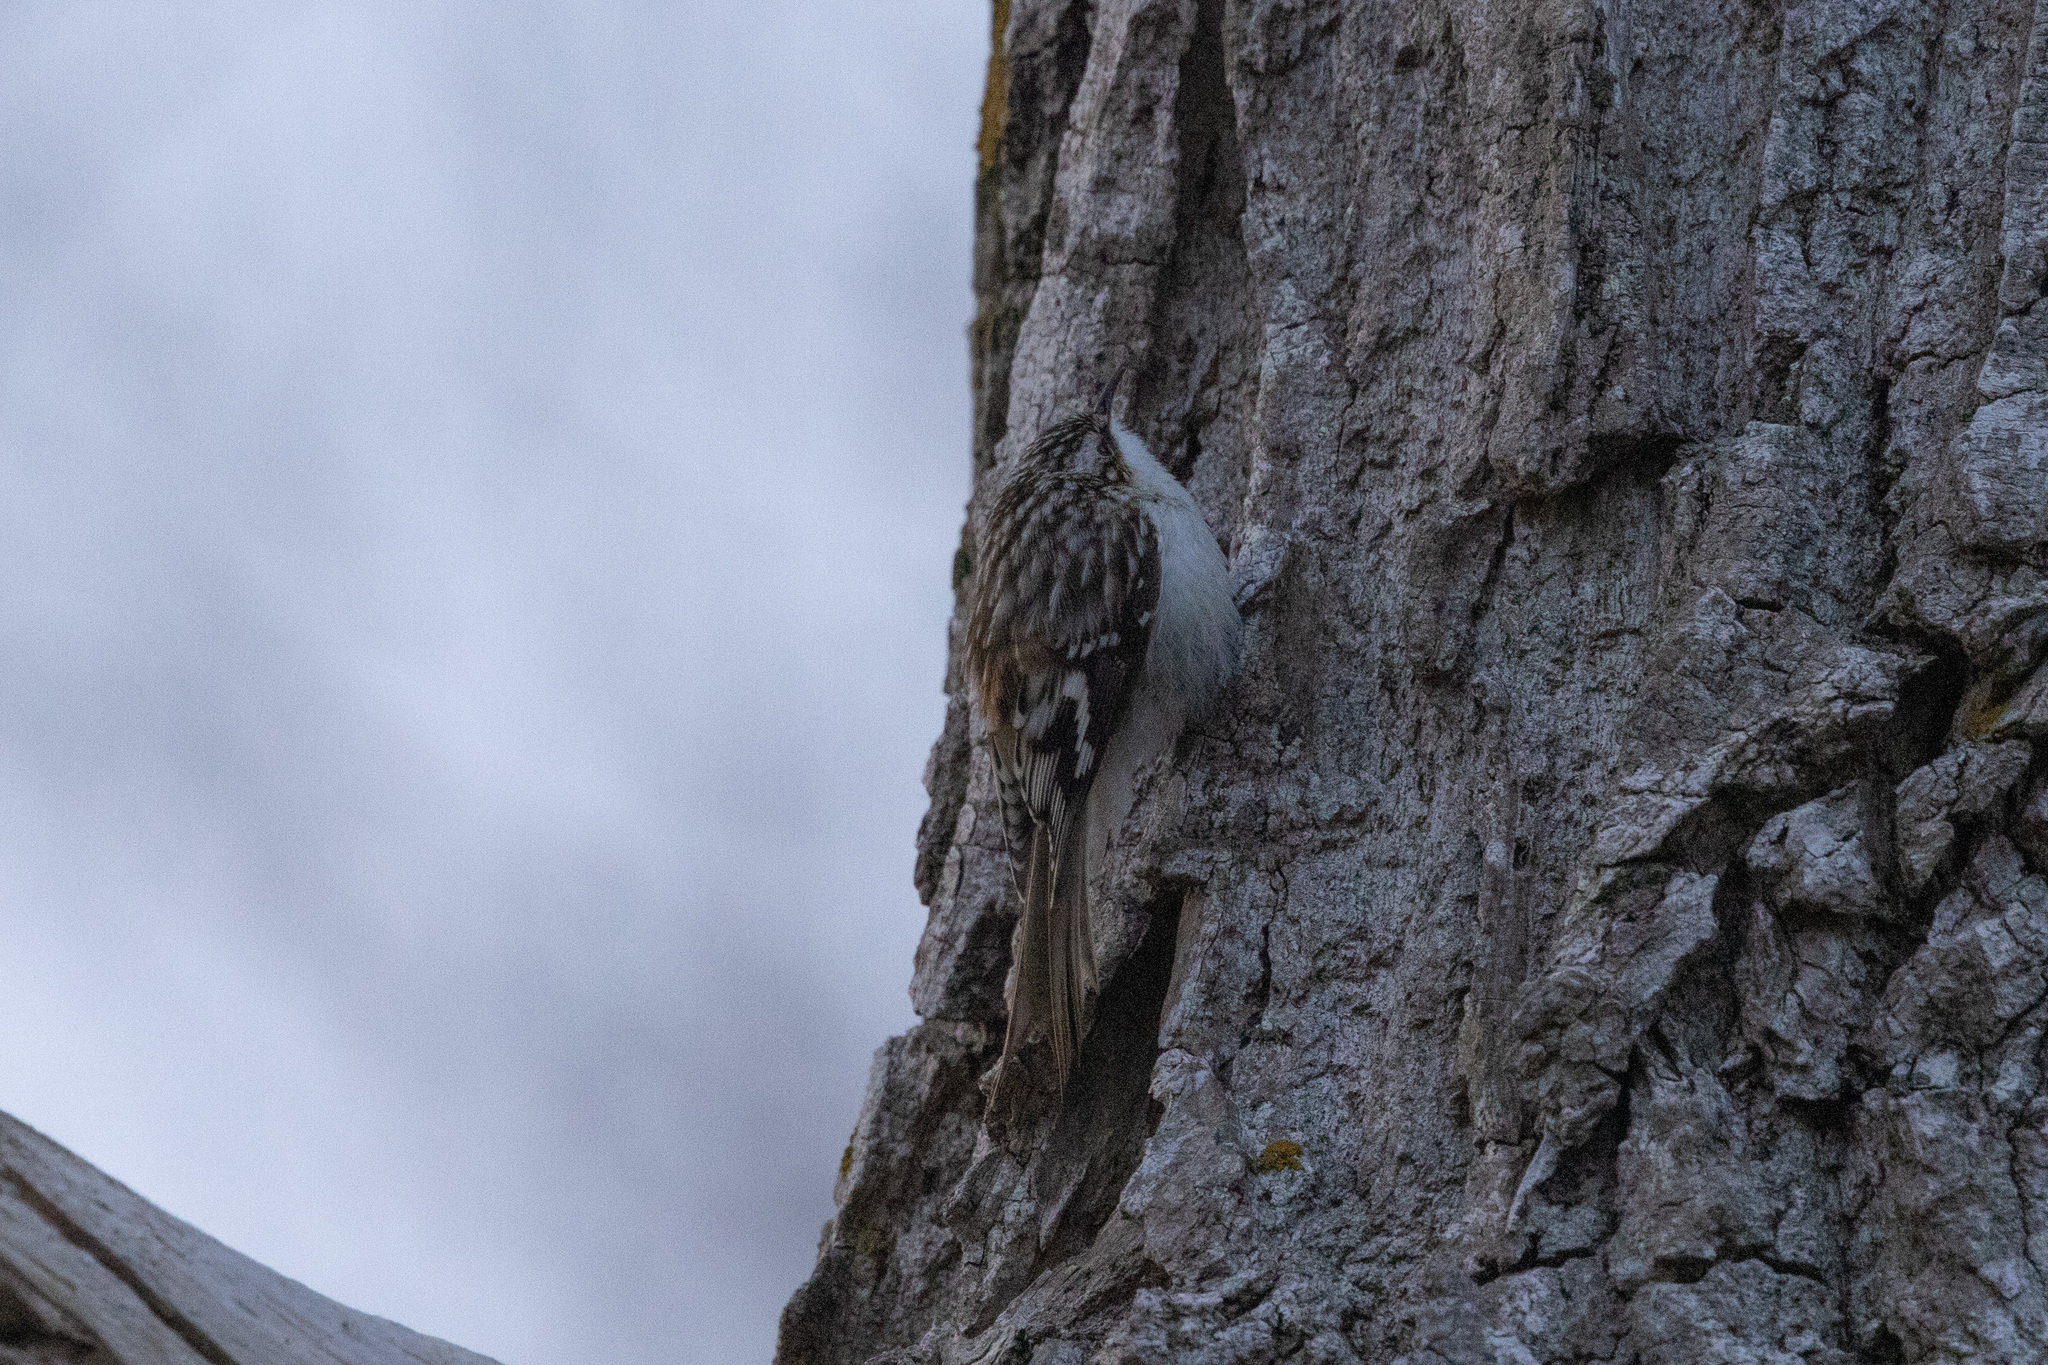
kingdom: Animalia
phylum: Chordata
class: Aves
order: Passeriformes
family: Certhiidae
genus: Certhia
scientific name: Certhia americana
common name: Brown creeper
